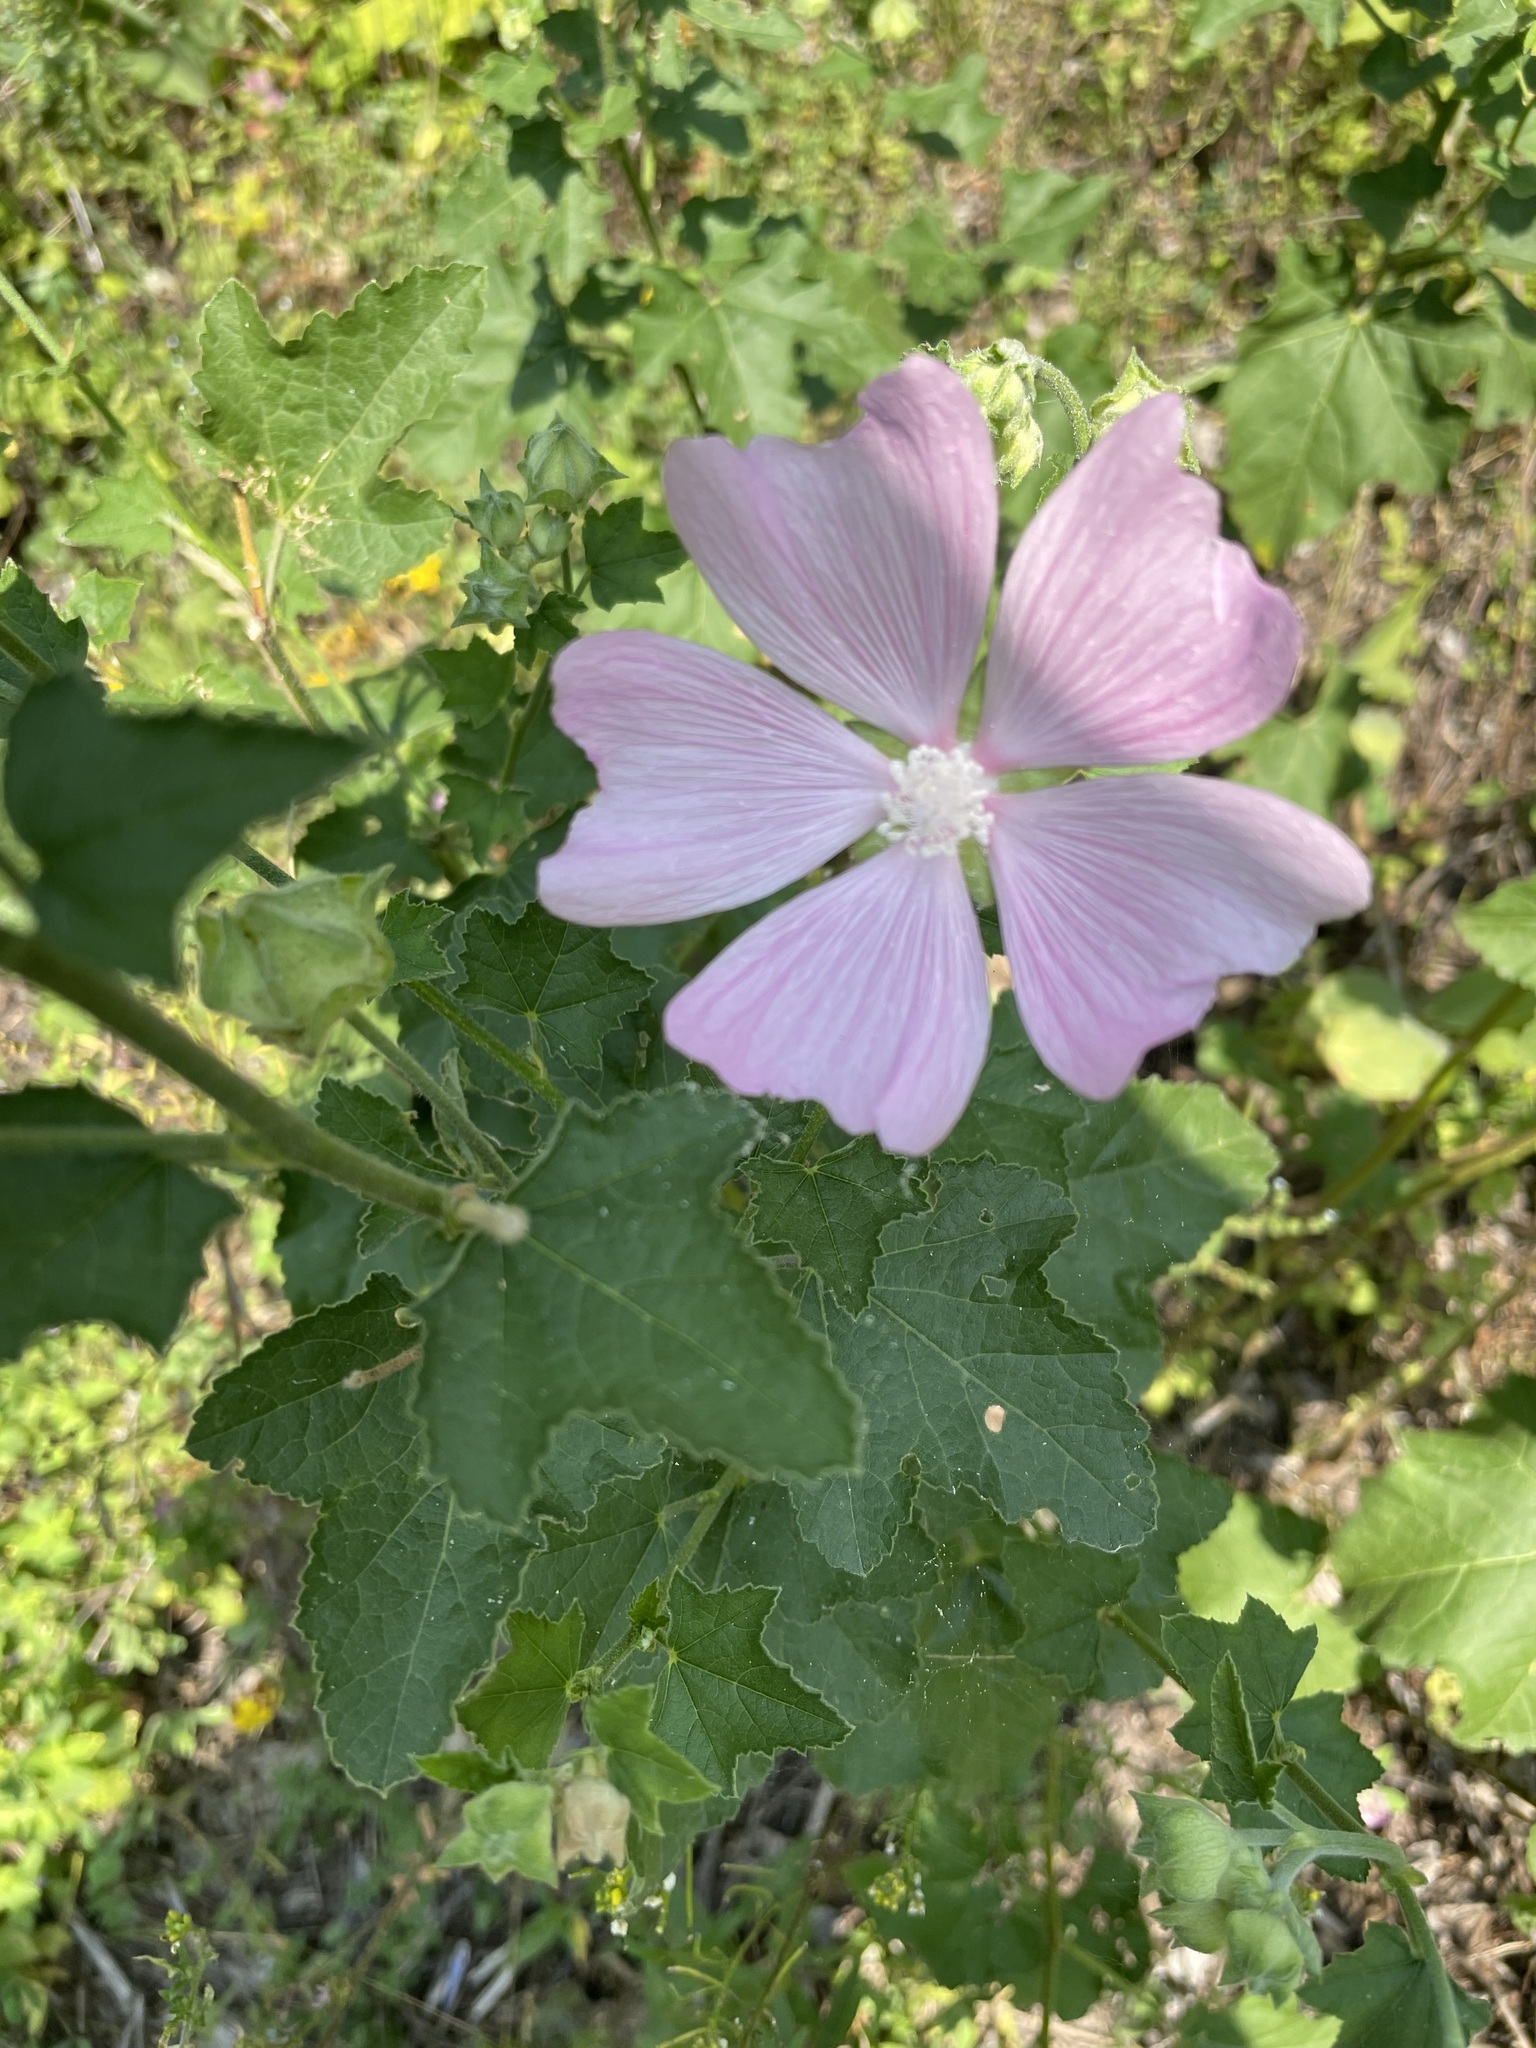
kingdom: Plantae
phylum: Tracheophyta
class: Magnoliopsida
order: Malvales
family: Malvaceae
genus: Malva
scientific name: Malva thuringiaca
